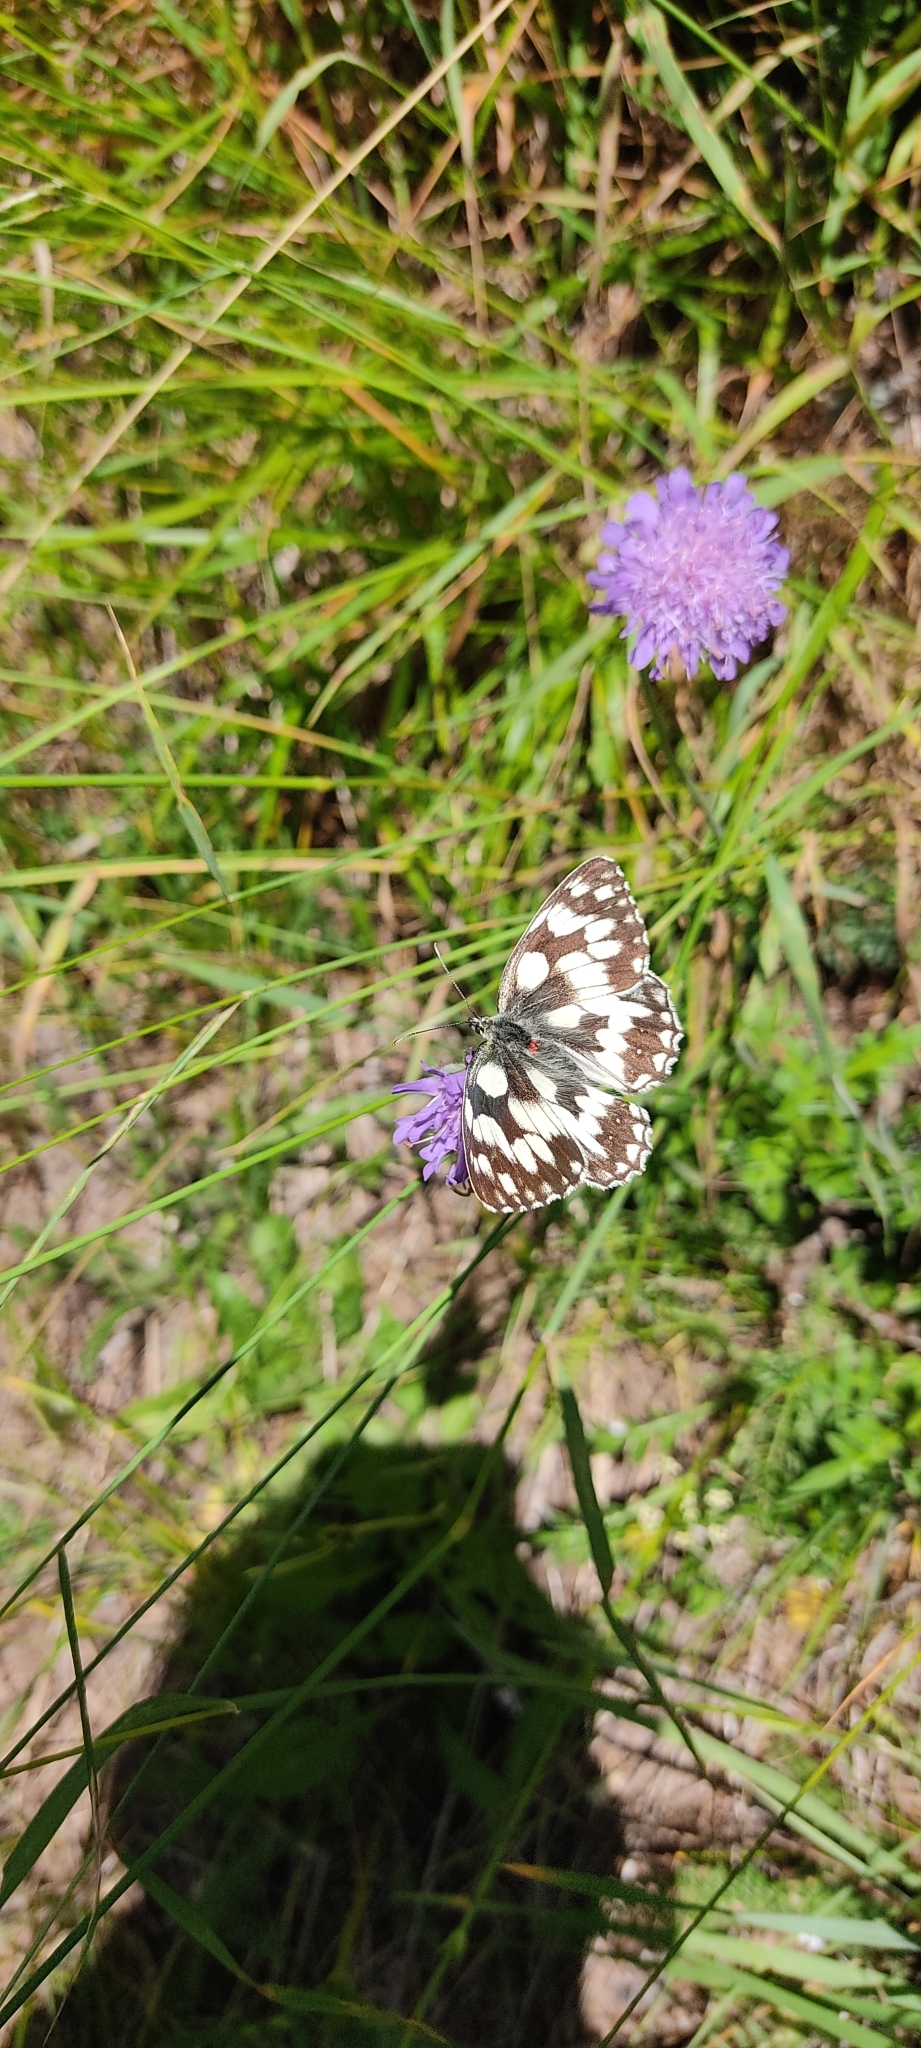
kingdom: Animalia
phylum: Arthropoda
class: Insecta
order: Lepidoptera
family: Nymphalidae
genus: Melanargia
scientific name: Melanargia galathea
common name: Marbled white
